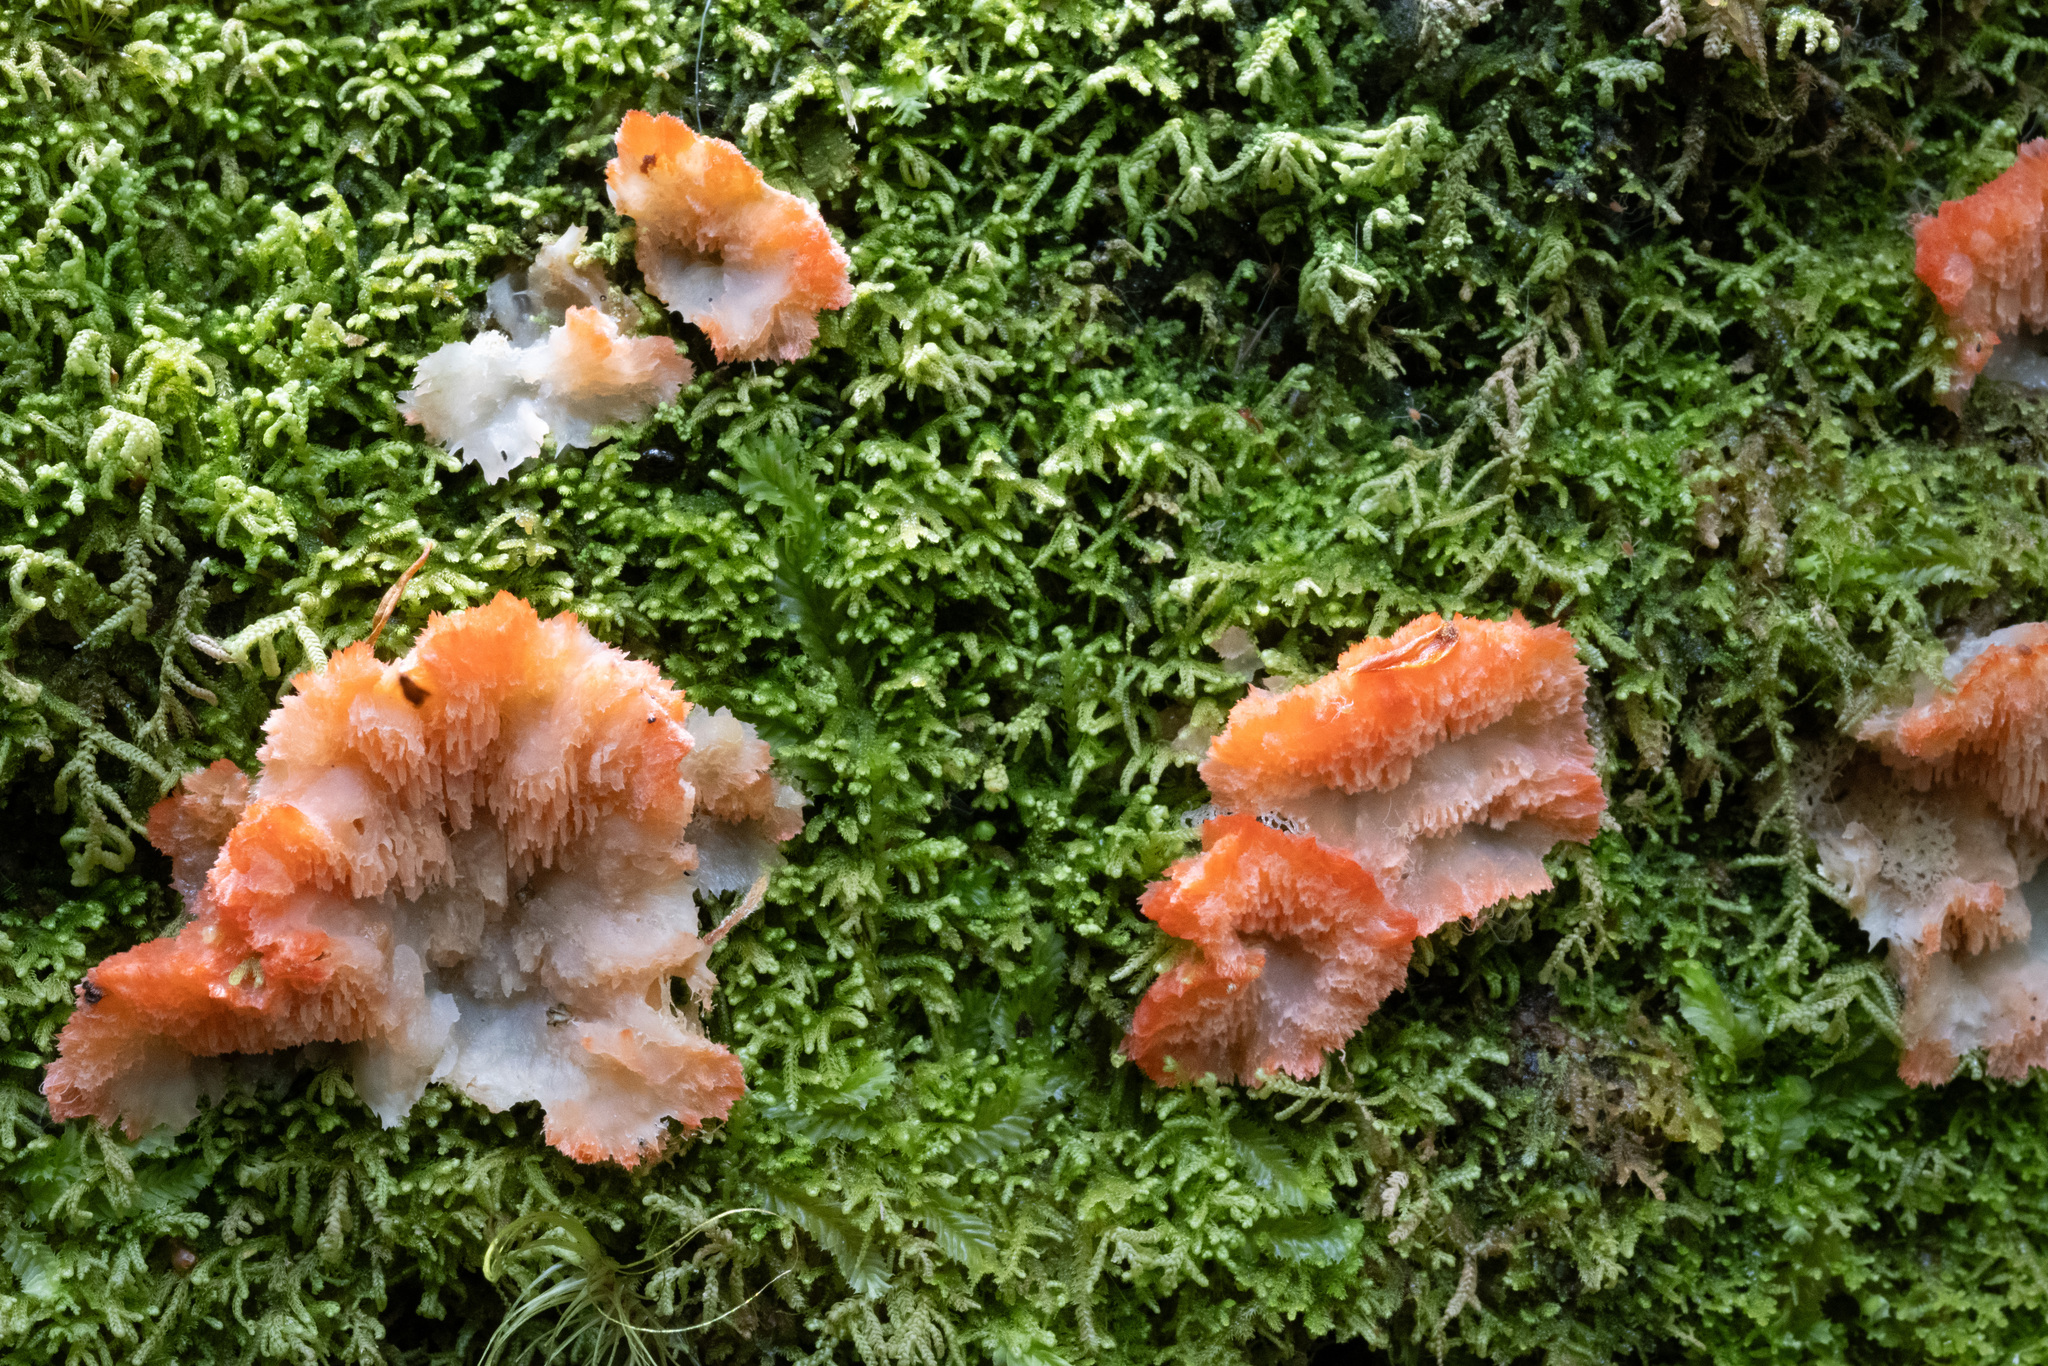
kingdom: Fungi
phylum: Basidiomycota
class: Agaricomycetes
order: Polyporales
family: Incrustoporiaceae
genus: Tyromyces
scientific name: Tyromyces pulcherrimus
